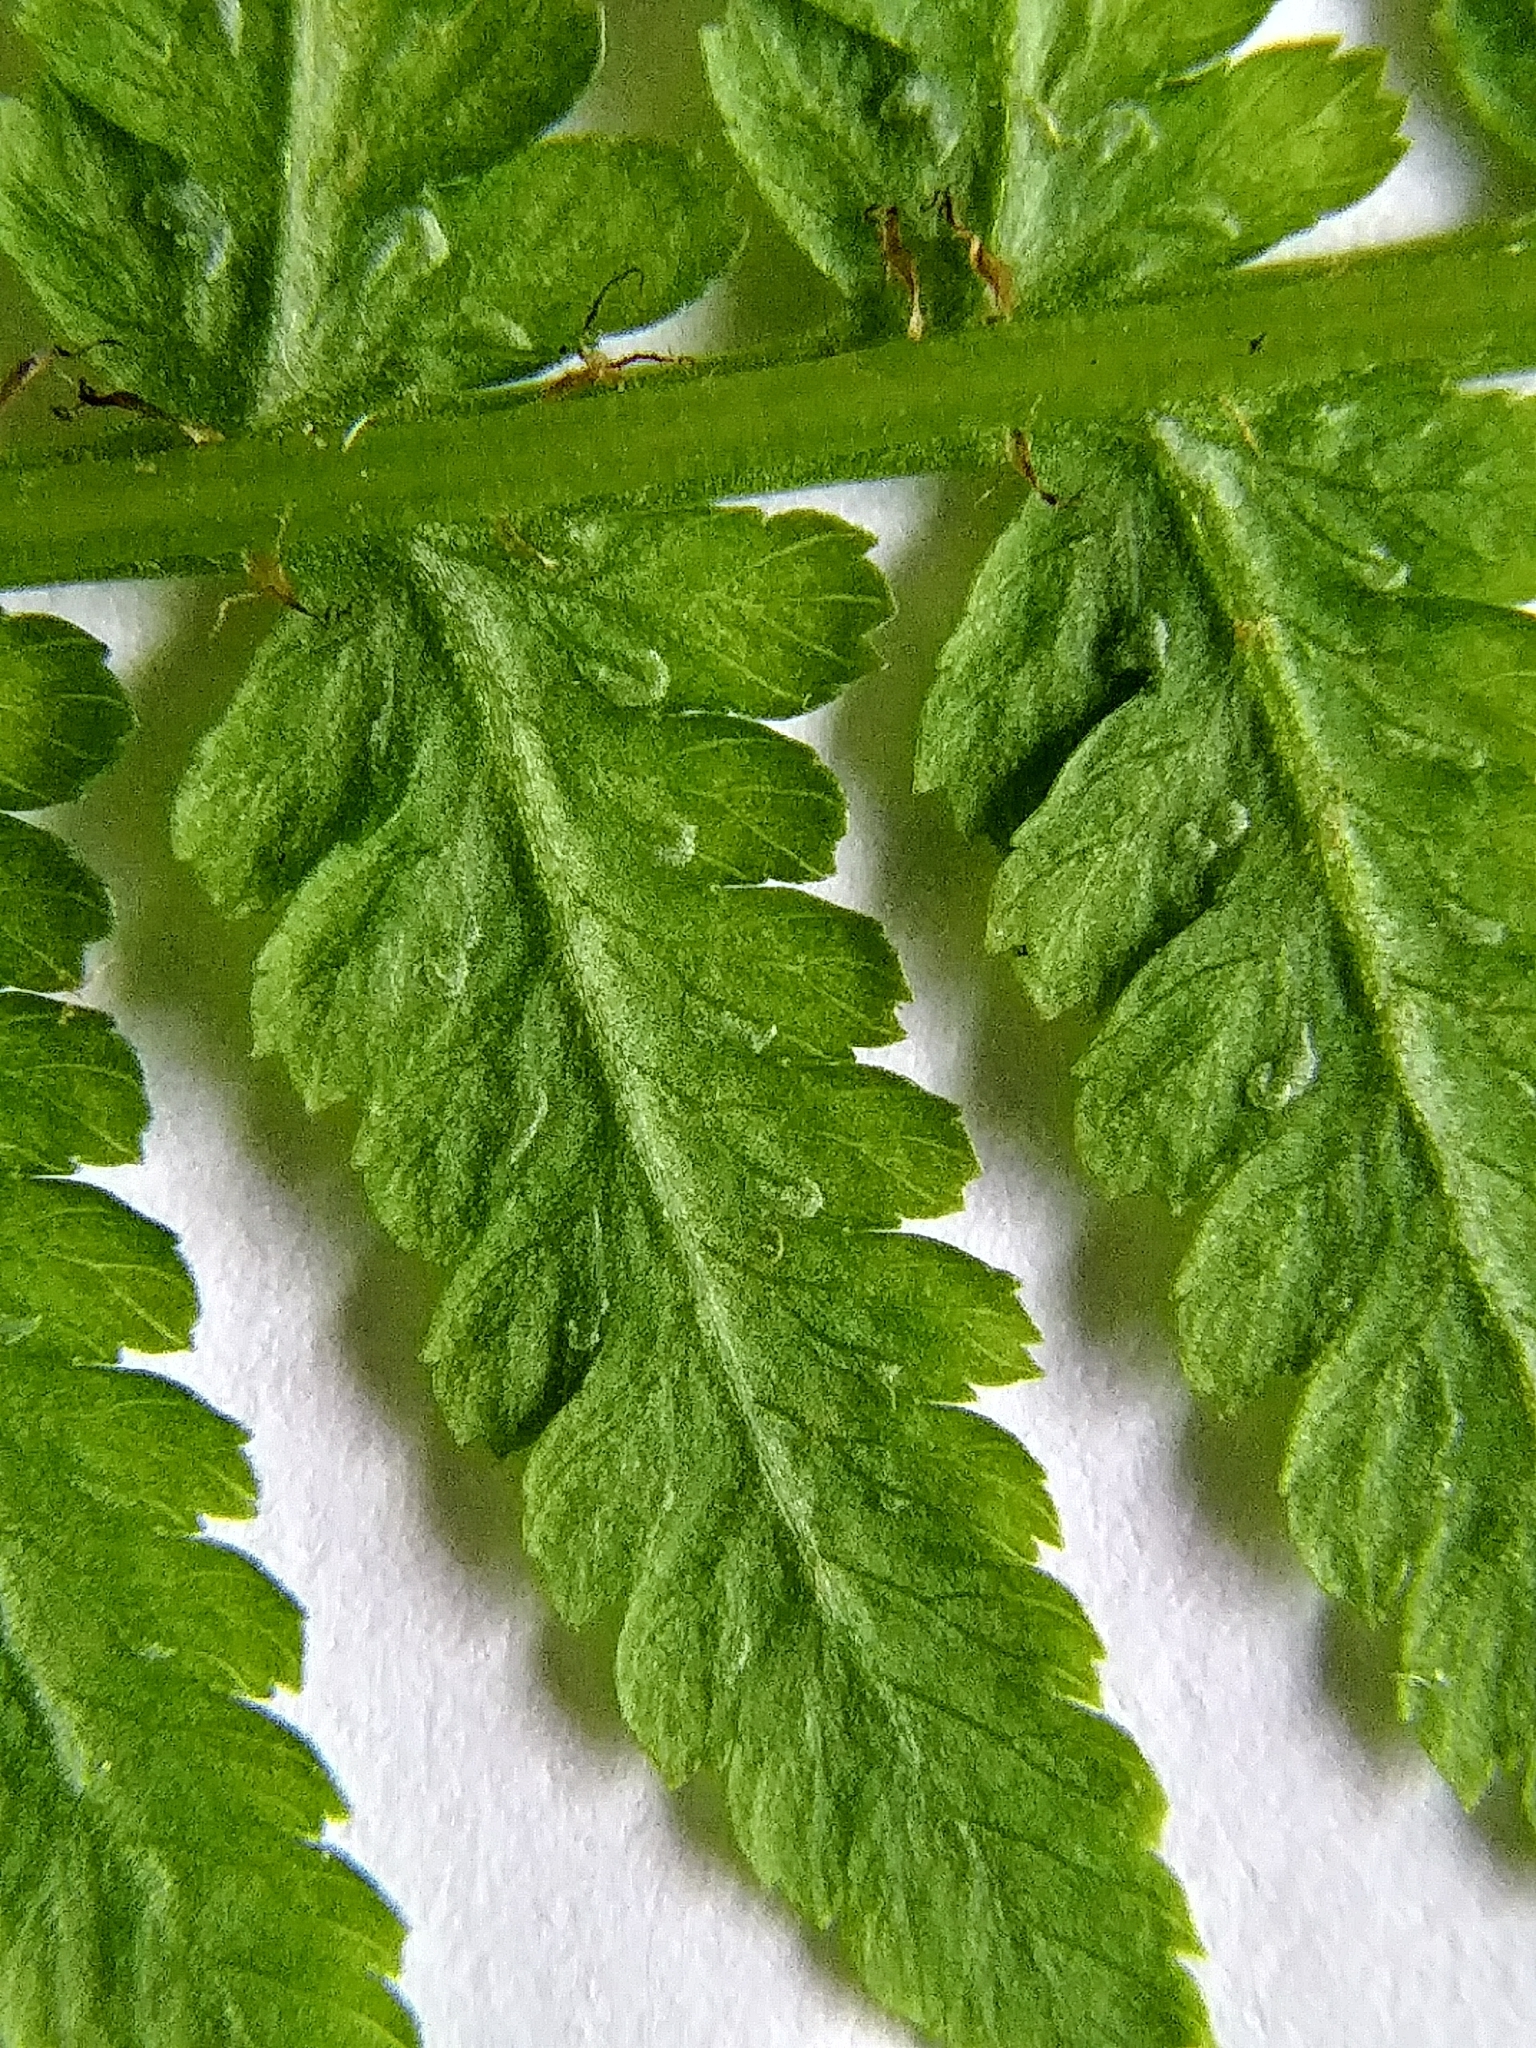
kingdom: Plantae
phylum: Tracheophyta
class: Polypodiopsida
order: Polypodiales
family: Athyriaceae
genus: Athyrium
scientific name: Athyrium angustum
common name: Northern lady fern
